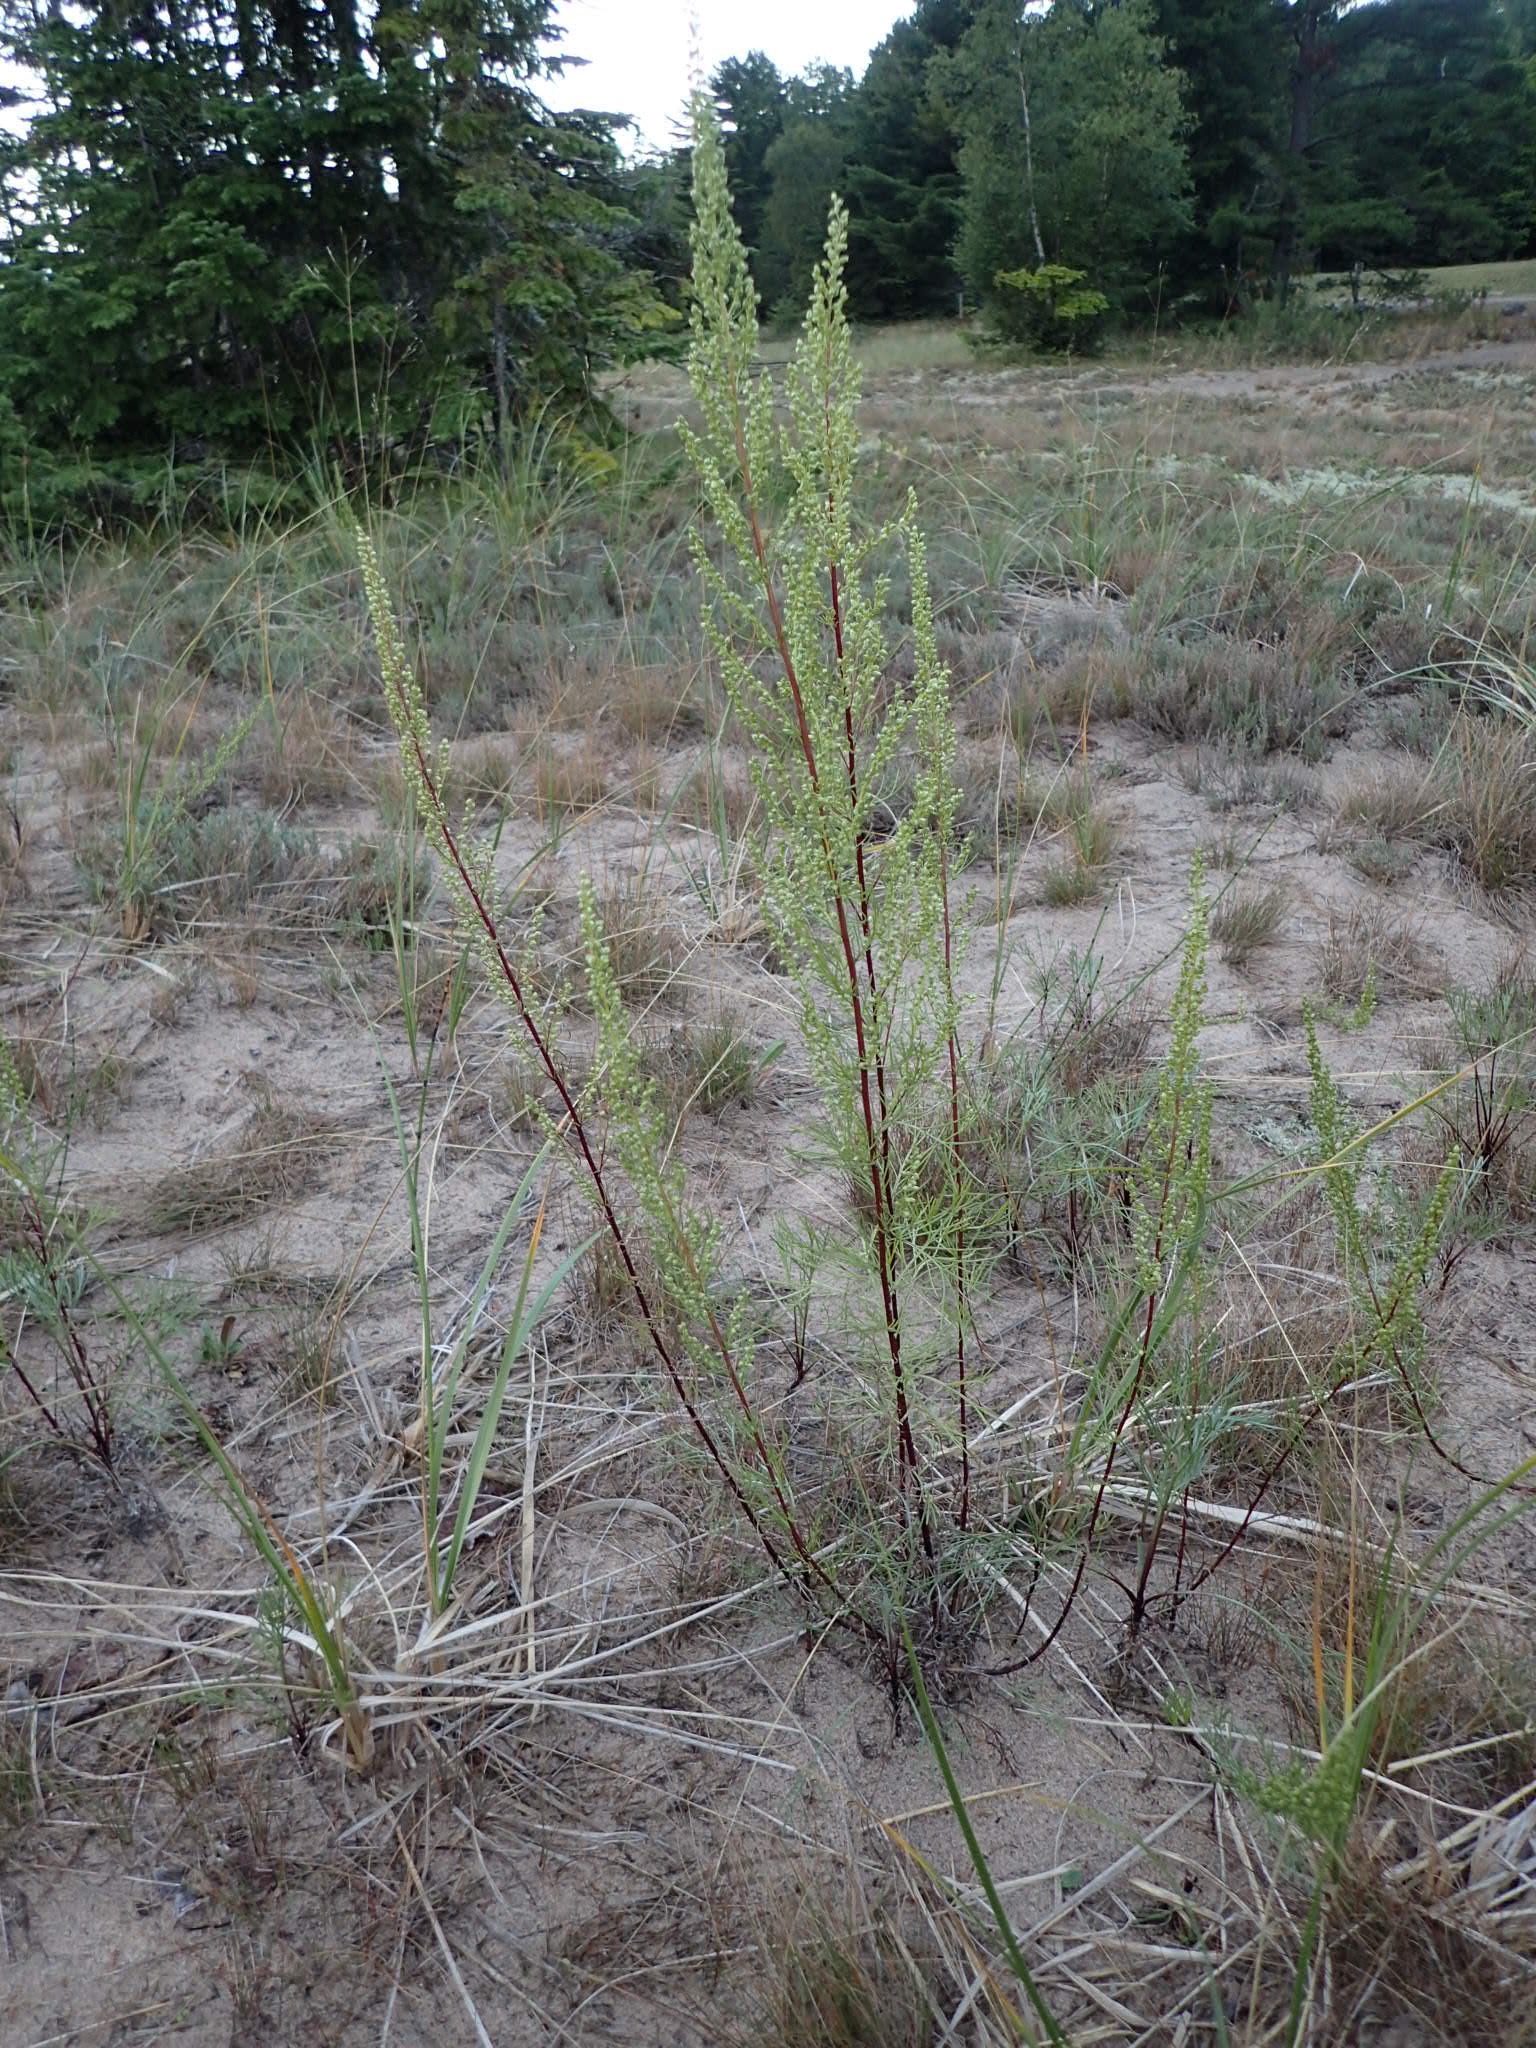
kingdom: Plantae
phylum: Tracheophyta
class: Magnoliopsida
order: Asterales
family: Asteraceae
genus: Artemisia
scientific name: Artemisia campestris
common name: Field wormwood
